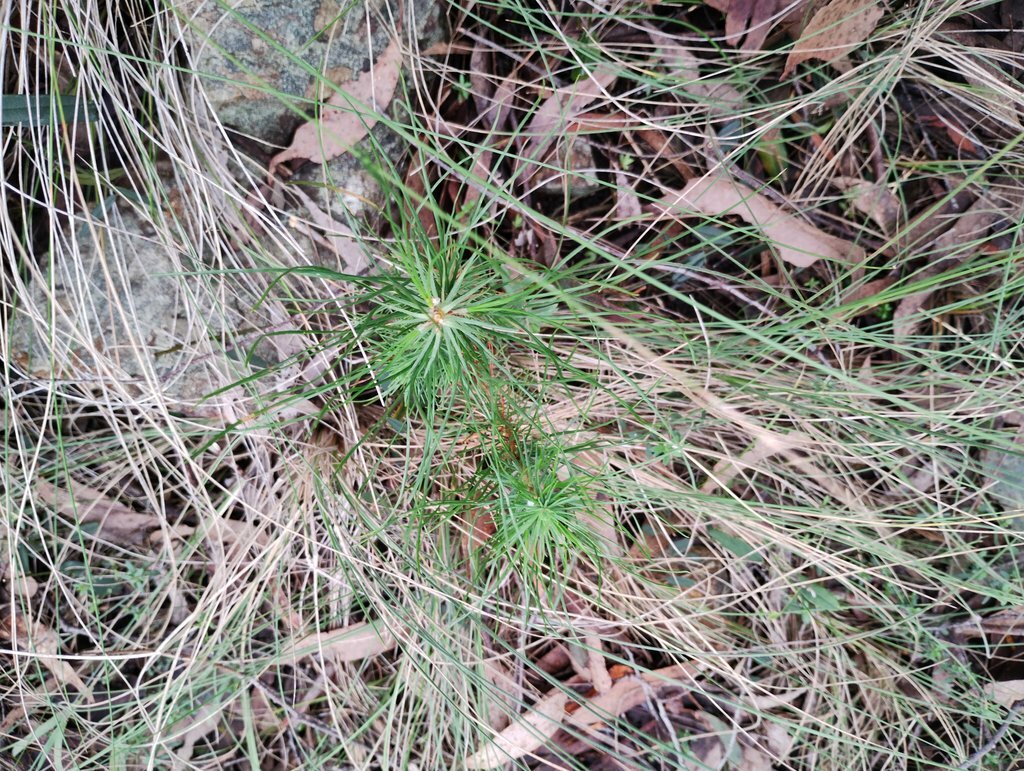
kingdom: Plantae
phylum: Tracheophyta
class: Pinopsida
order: Pinales
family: Pinaceae
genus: Pinus
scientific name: Pinus radiata
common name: Monterey pine
